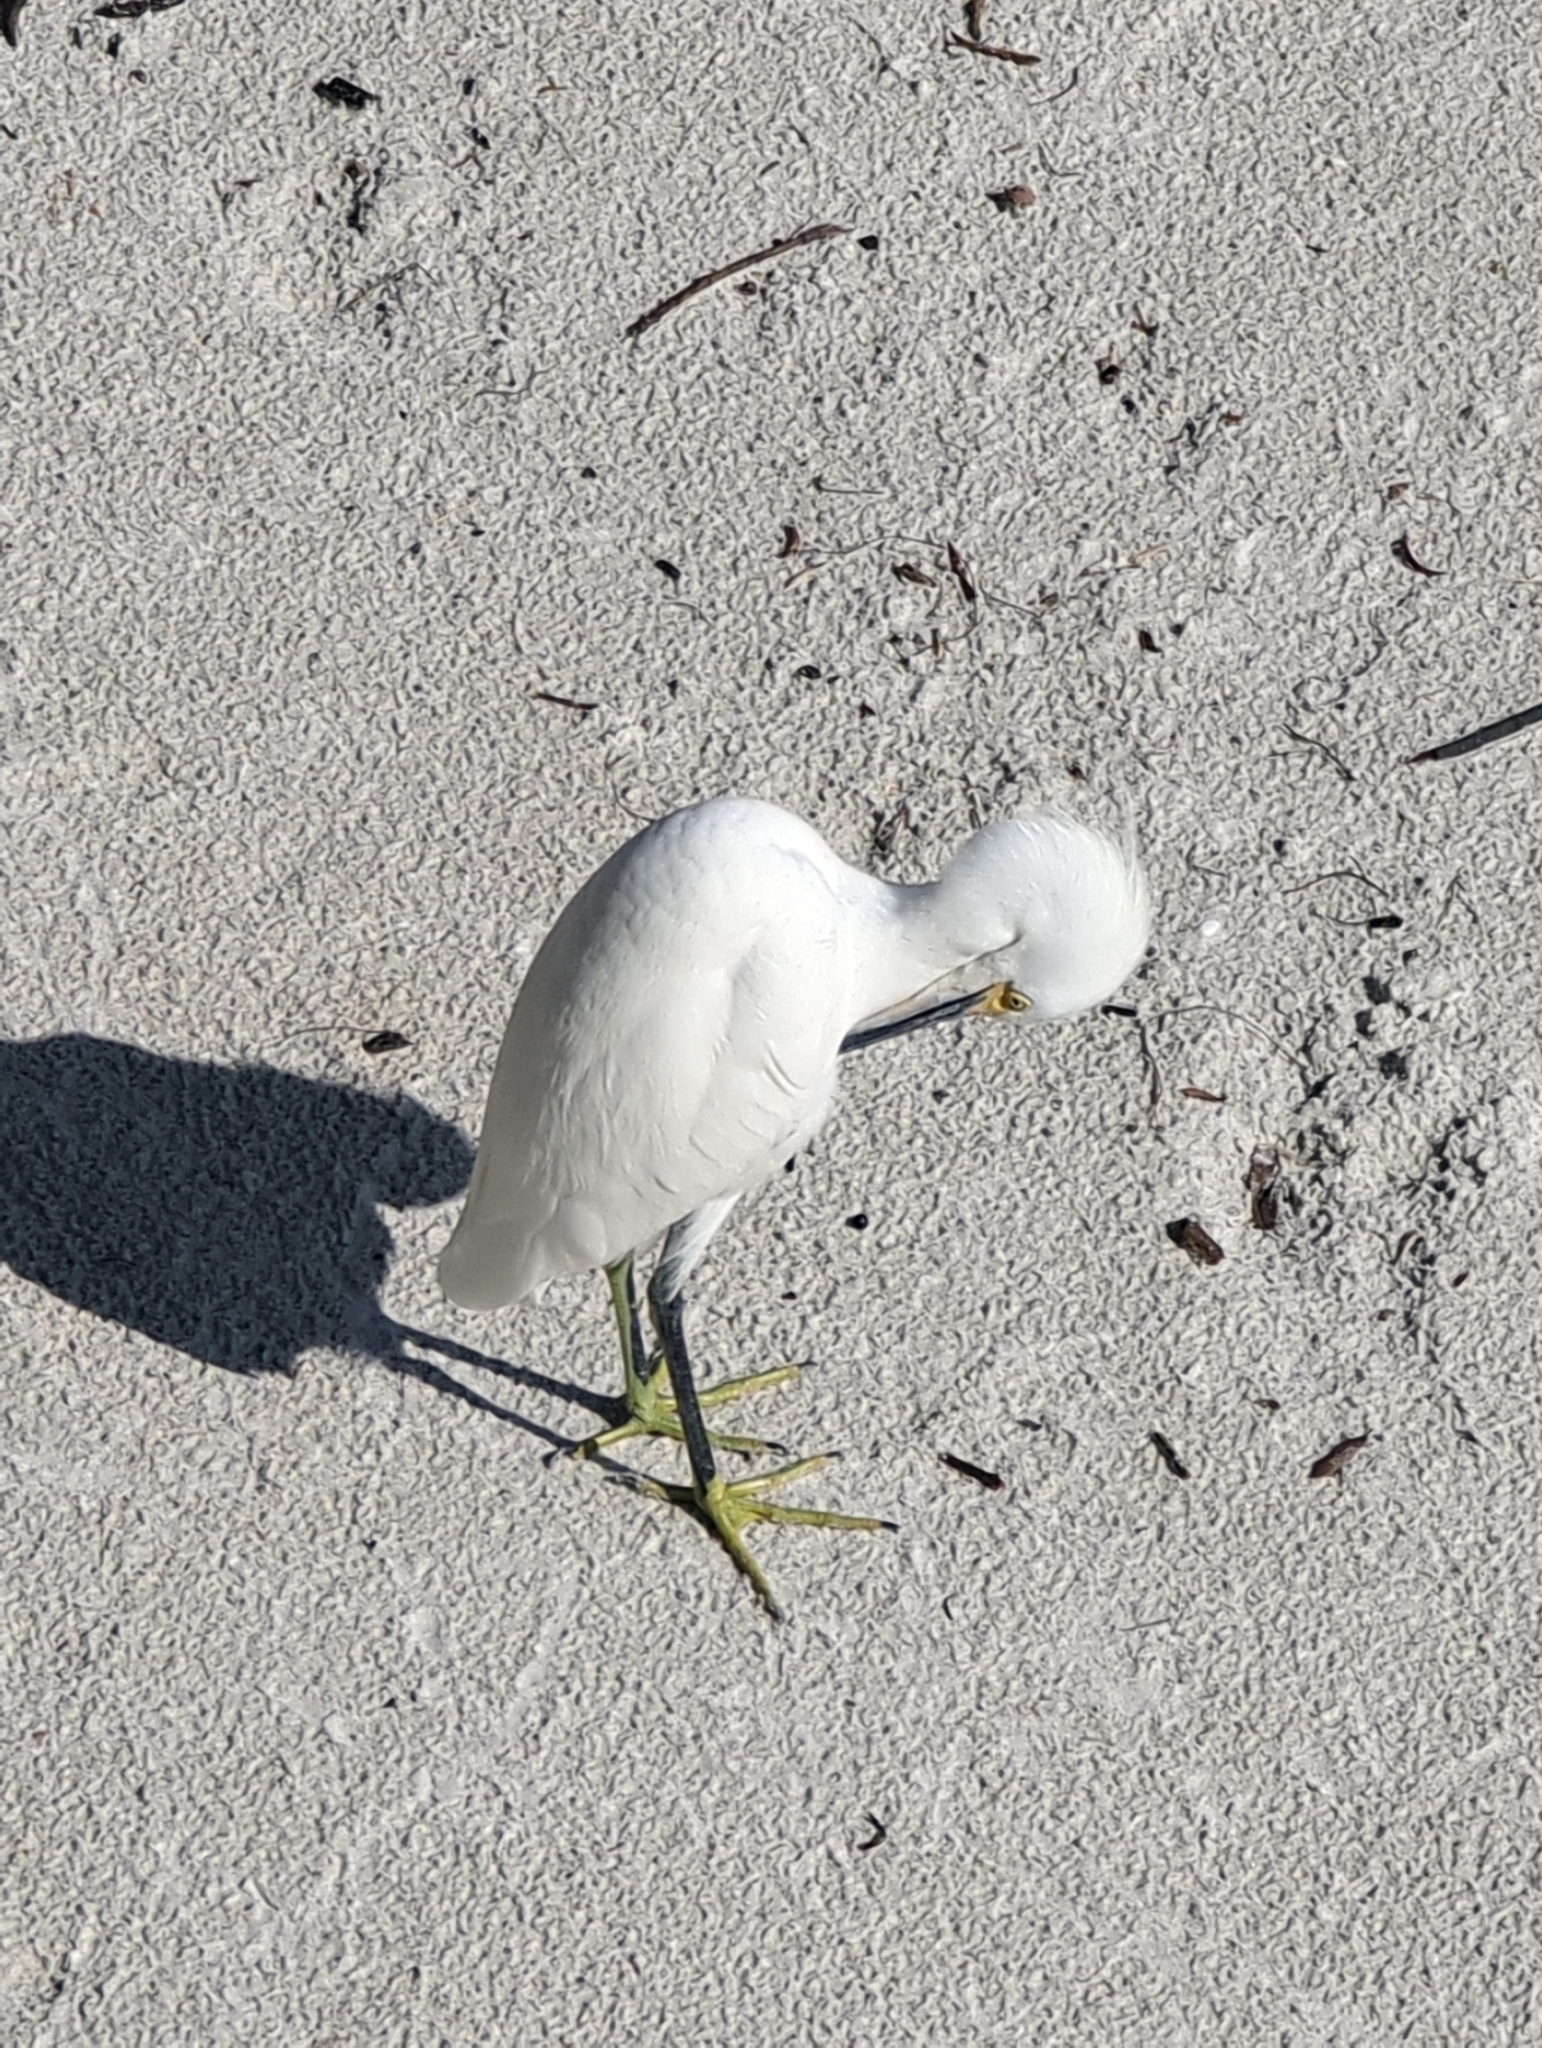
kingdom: Animalia
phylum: Chordata
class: Aves
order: Pelecaniformes
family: Ardeidae
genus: Egretta
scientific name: Egretta thula
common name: Snowy egret
